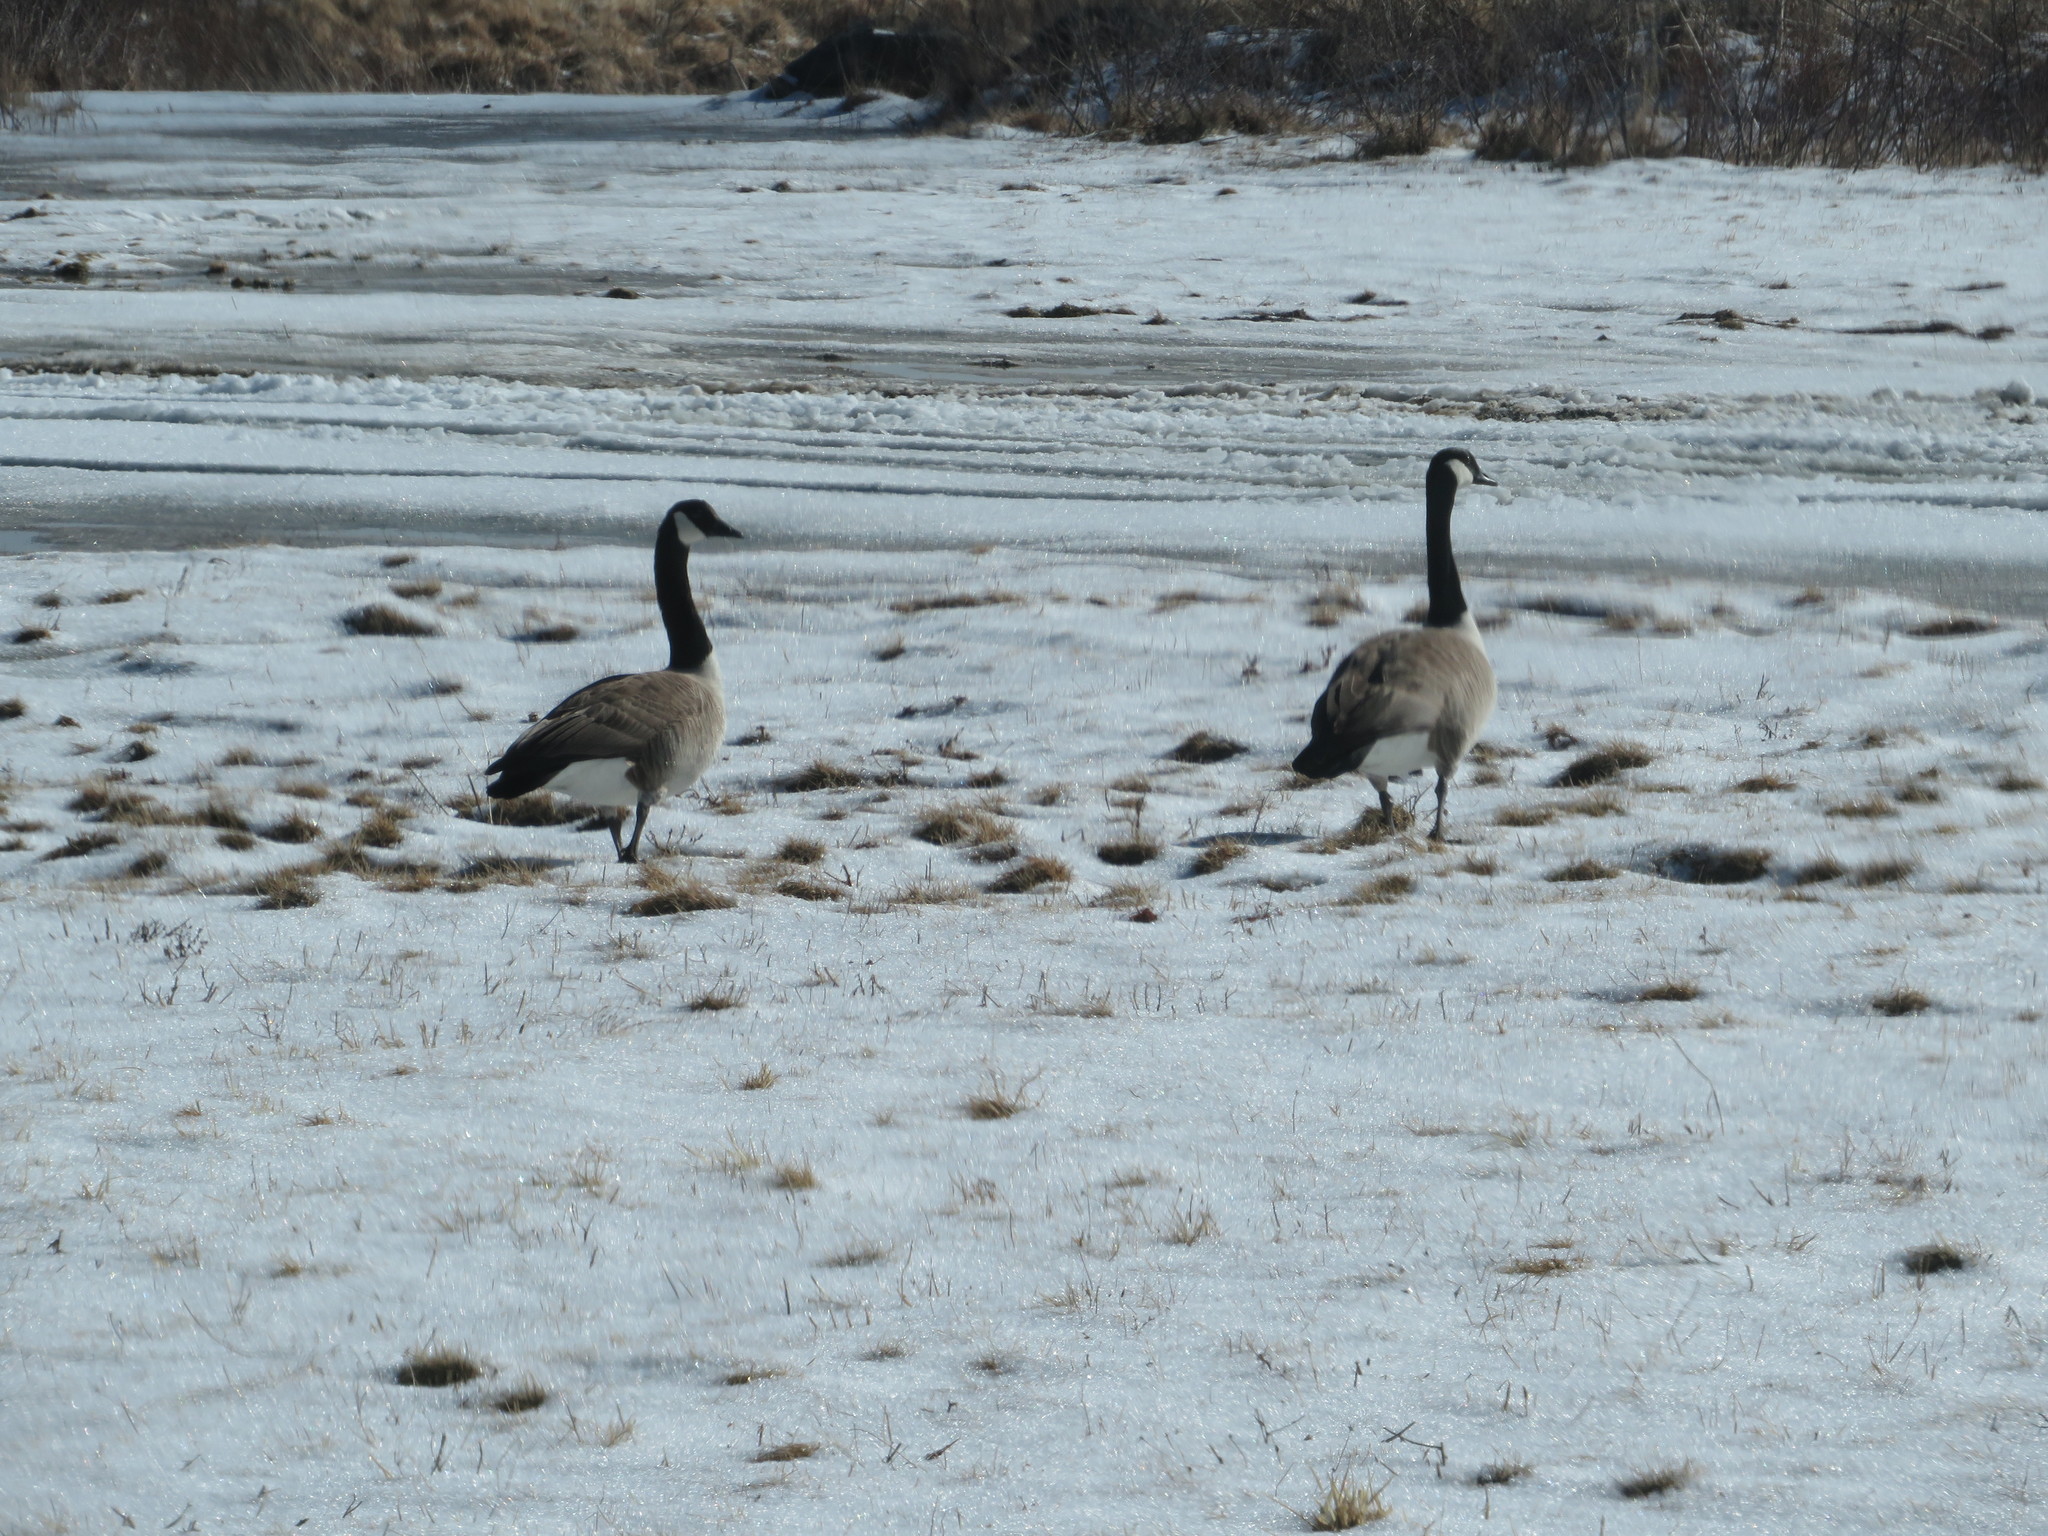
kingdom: Animalia
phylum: Chordata
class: Aves
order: Anseriformes
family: Anatidae
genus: Branta
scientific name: Branta canadensis
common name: Canada goose
